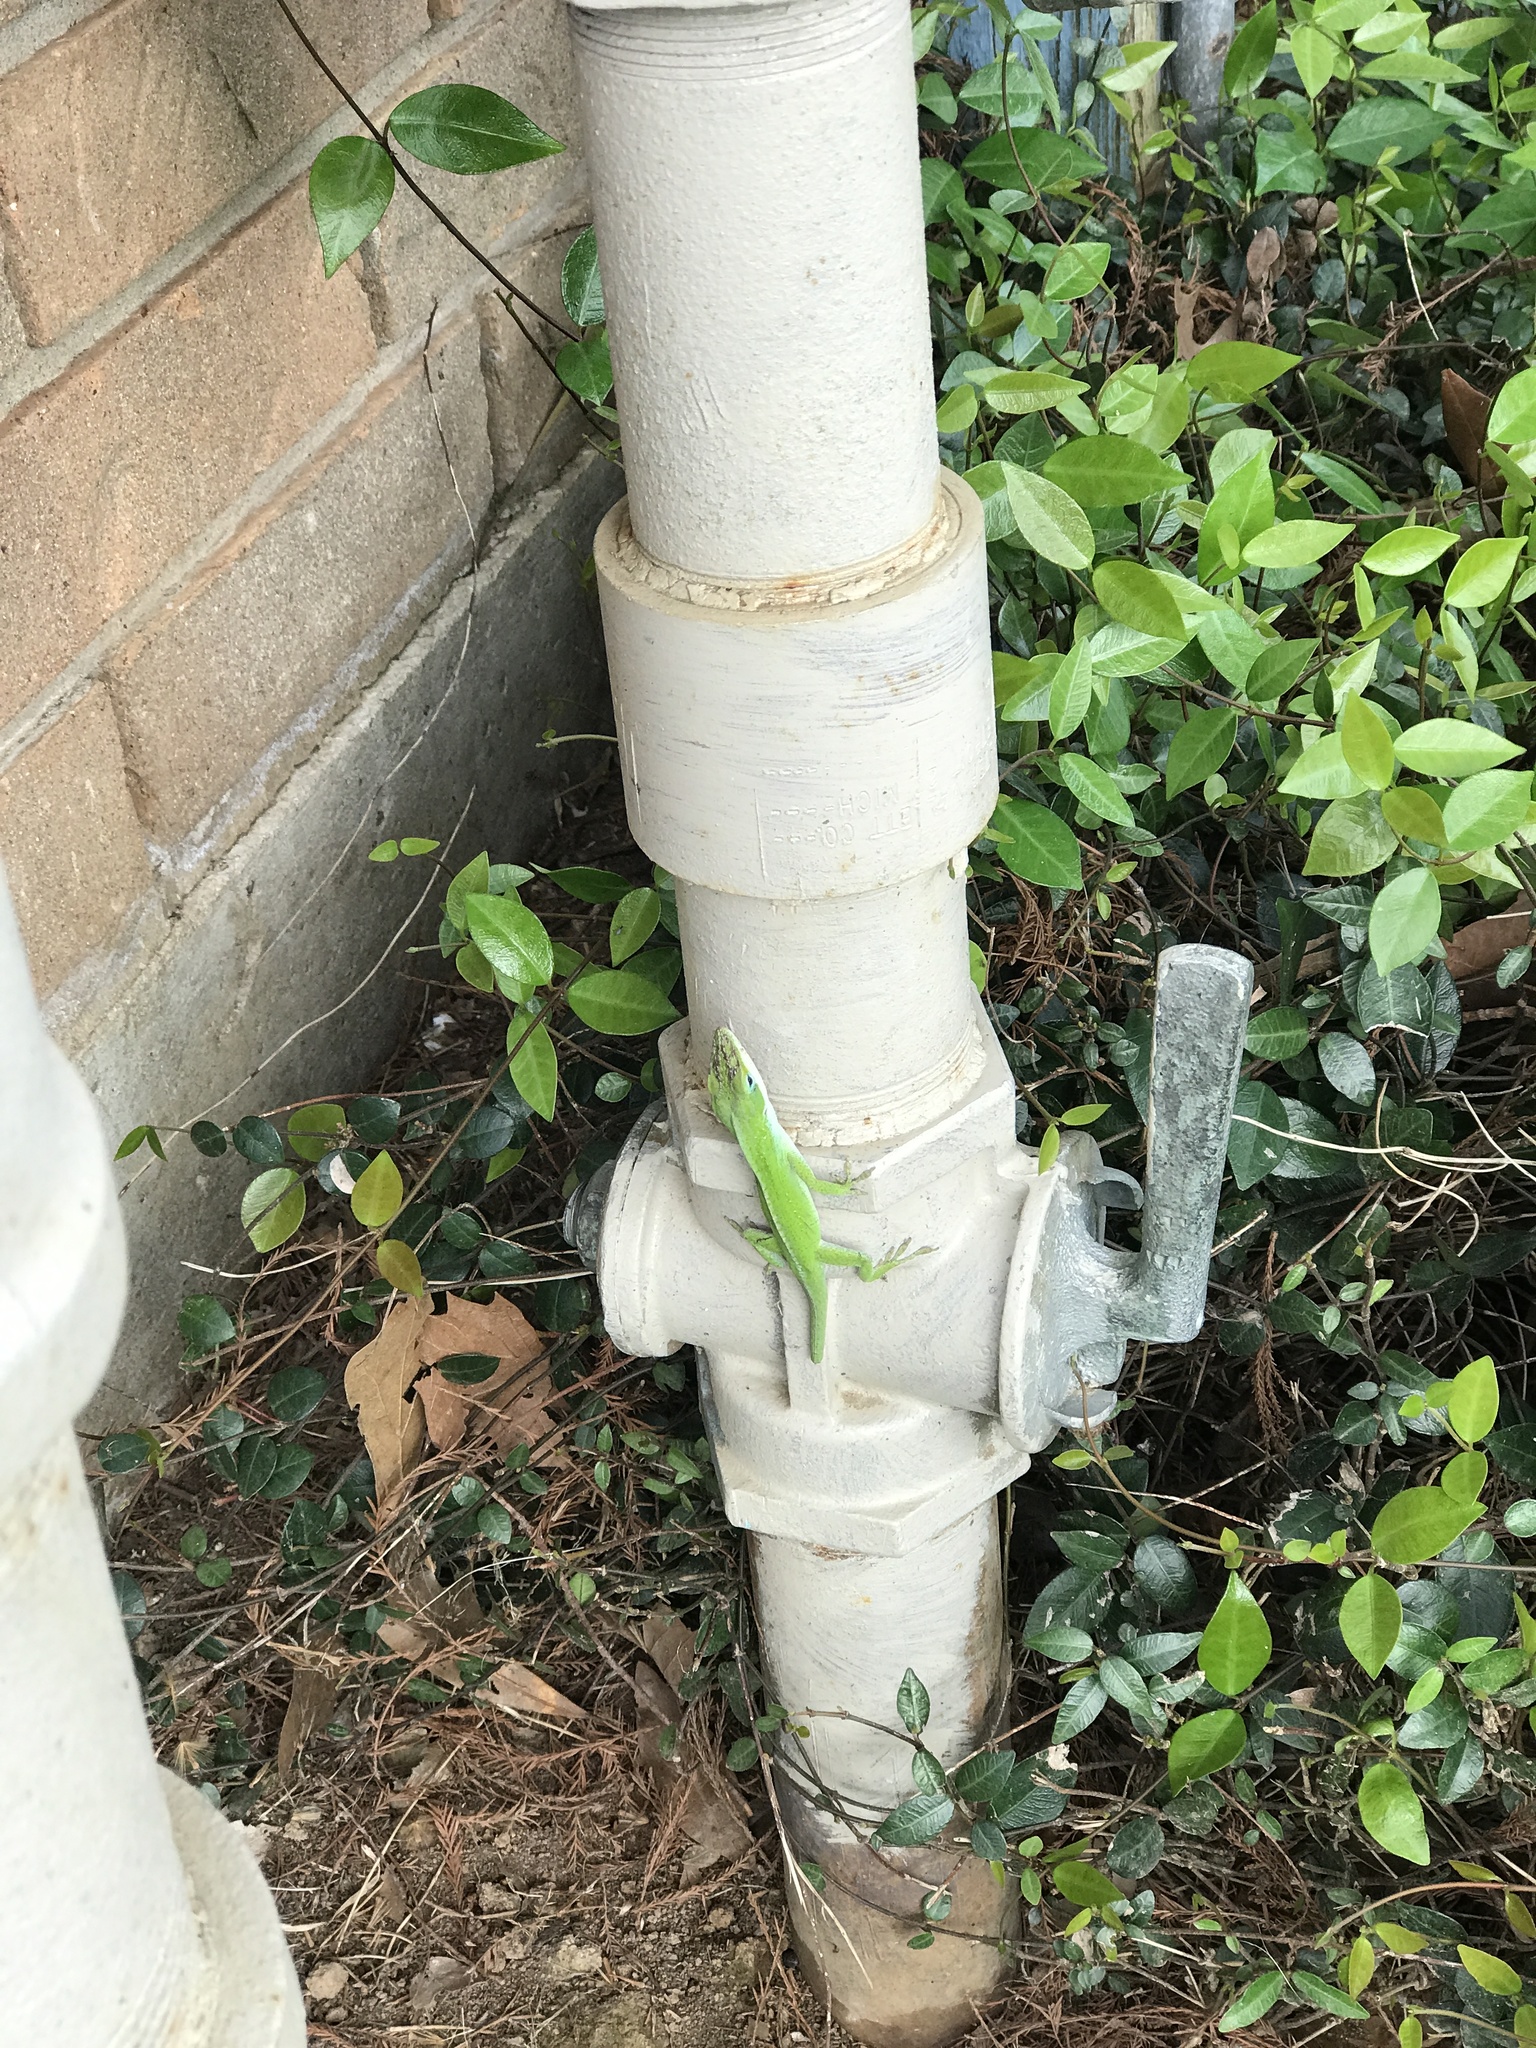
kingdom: Animalia
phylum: Chordata
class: Squamata
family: Dactyloidae
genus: Anolis
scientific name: Anolis carolinensis
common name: Green anole
